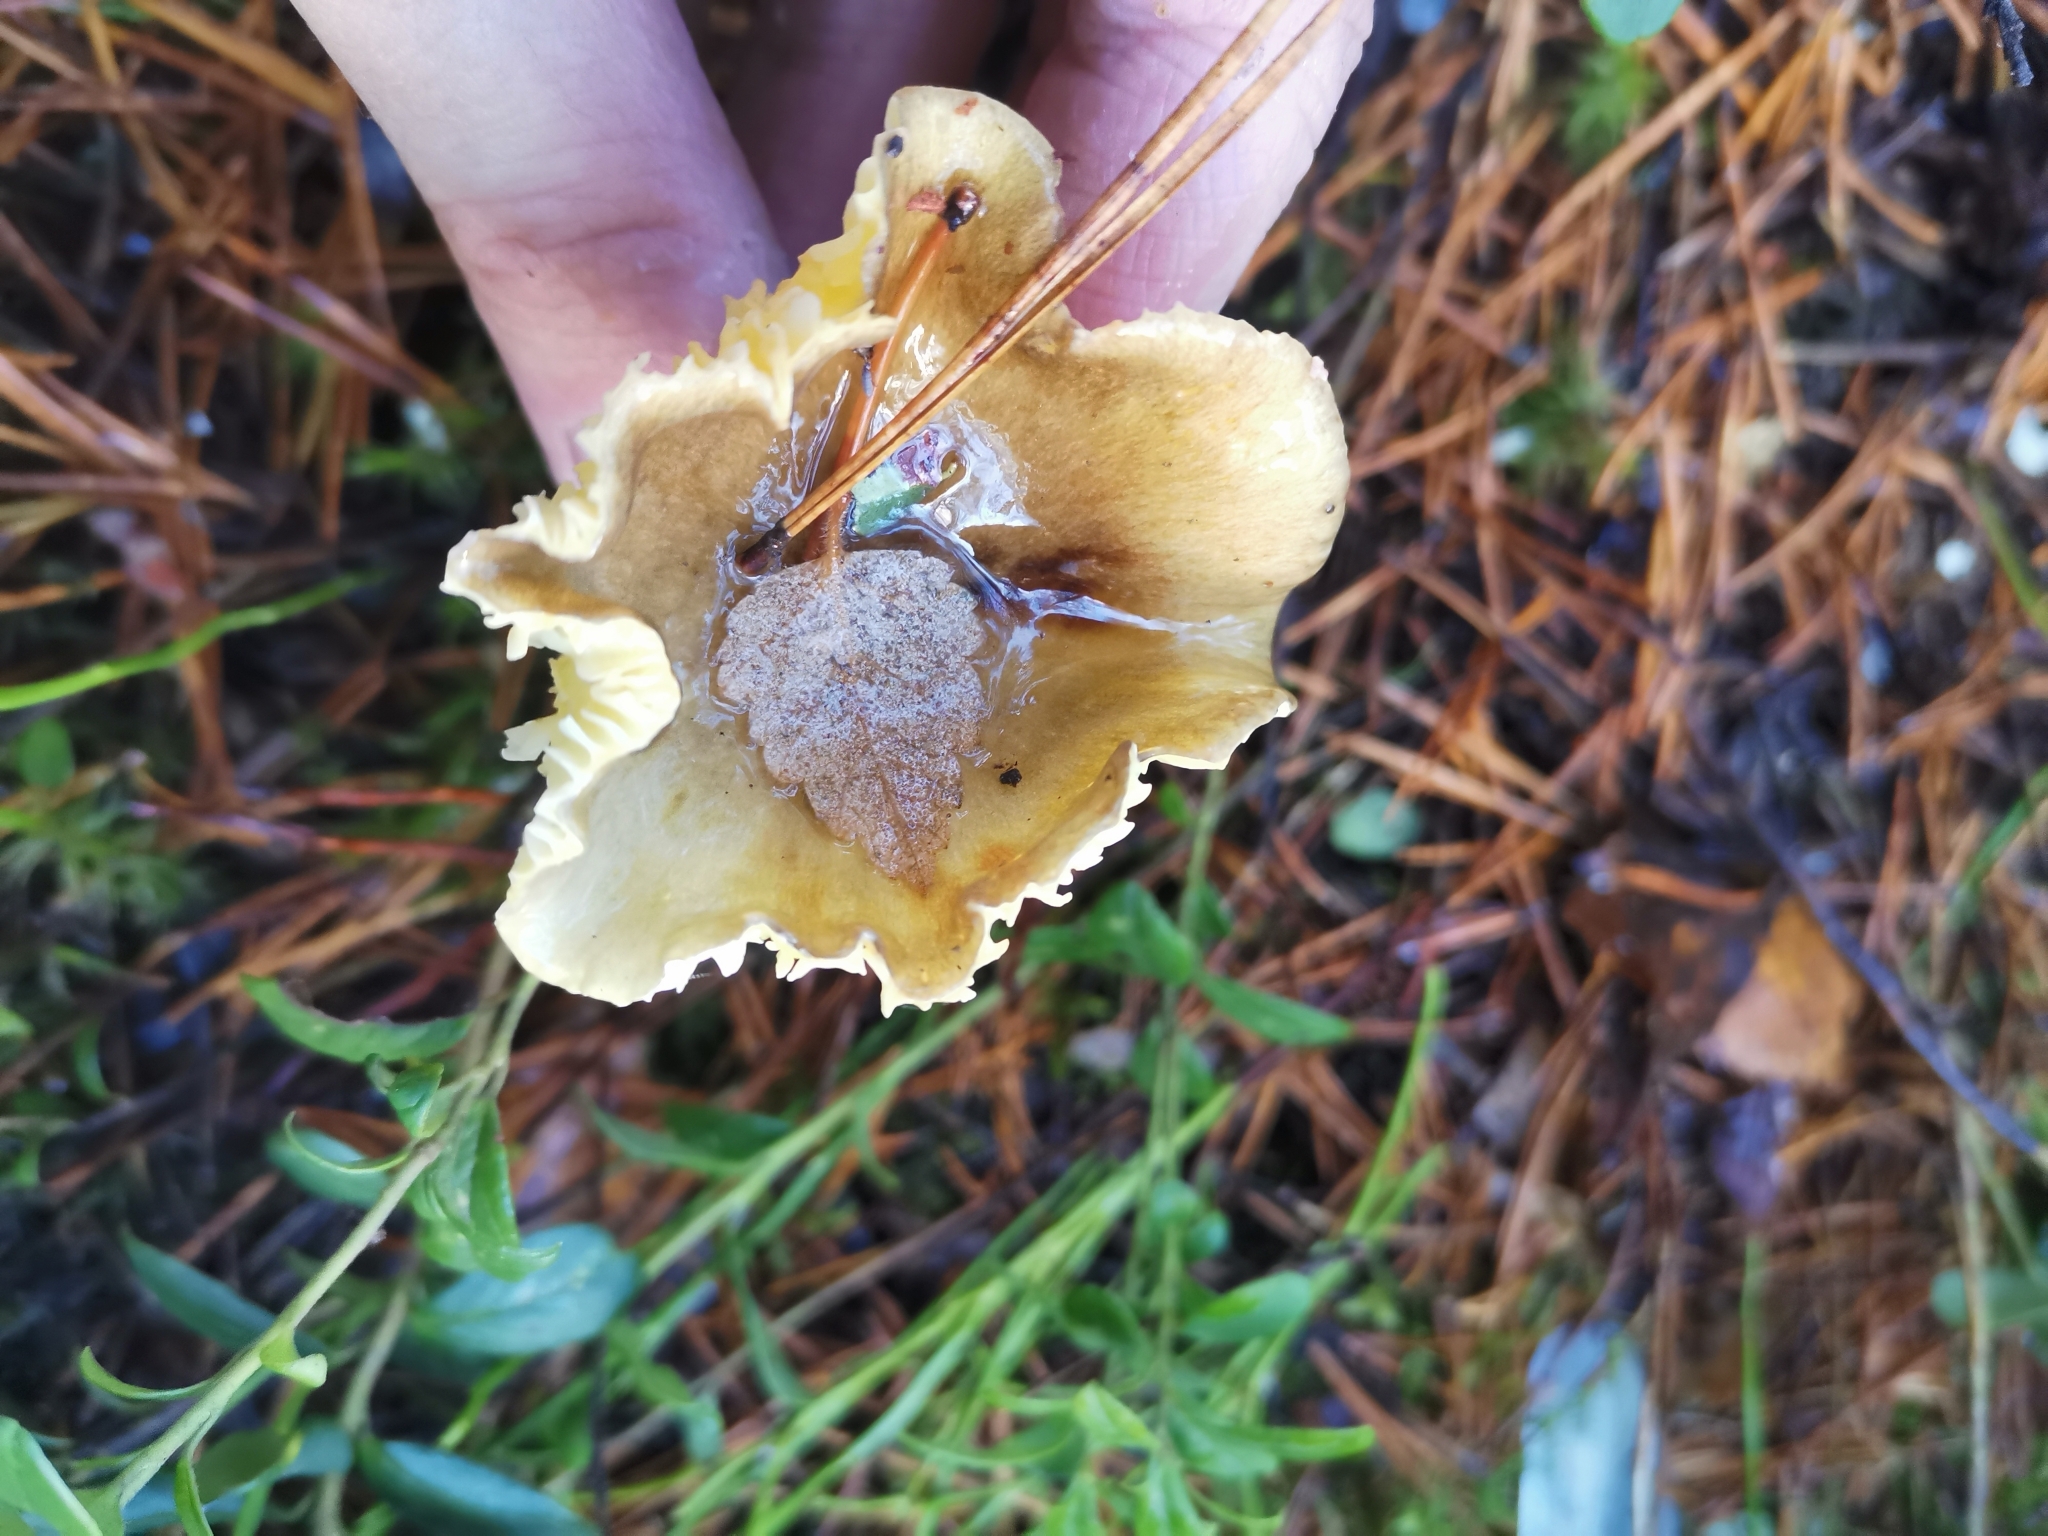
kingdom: Fungi
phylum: Basidiomycota
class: Agaricomycetes
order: Agaricales
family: Hygrophoraceae
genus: Hygrophorus
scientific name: Hygrophorus hypothejus
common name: Herald of winter
